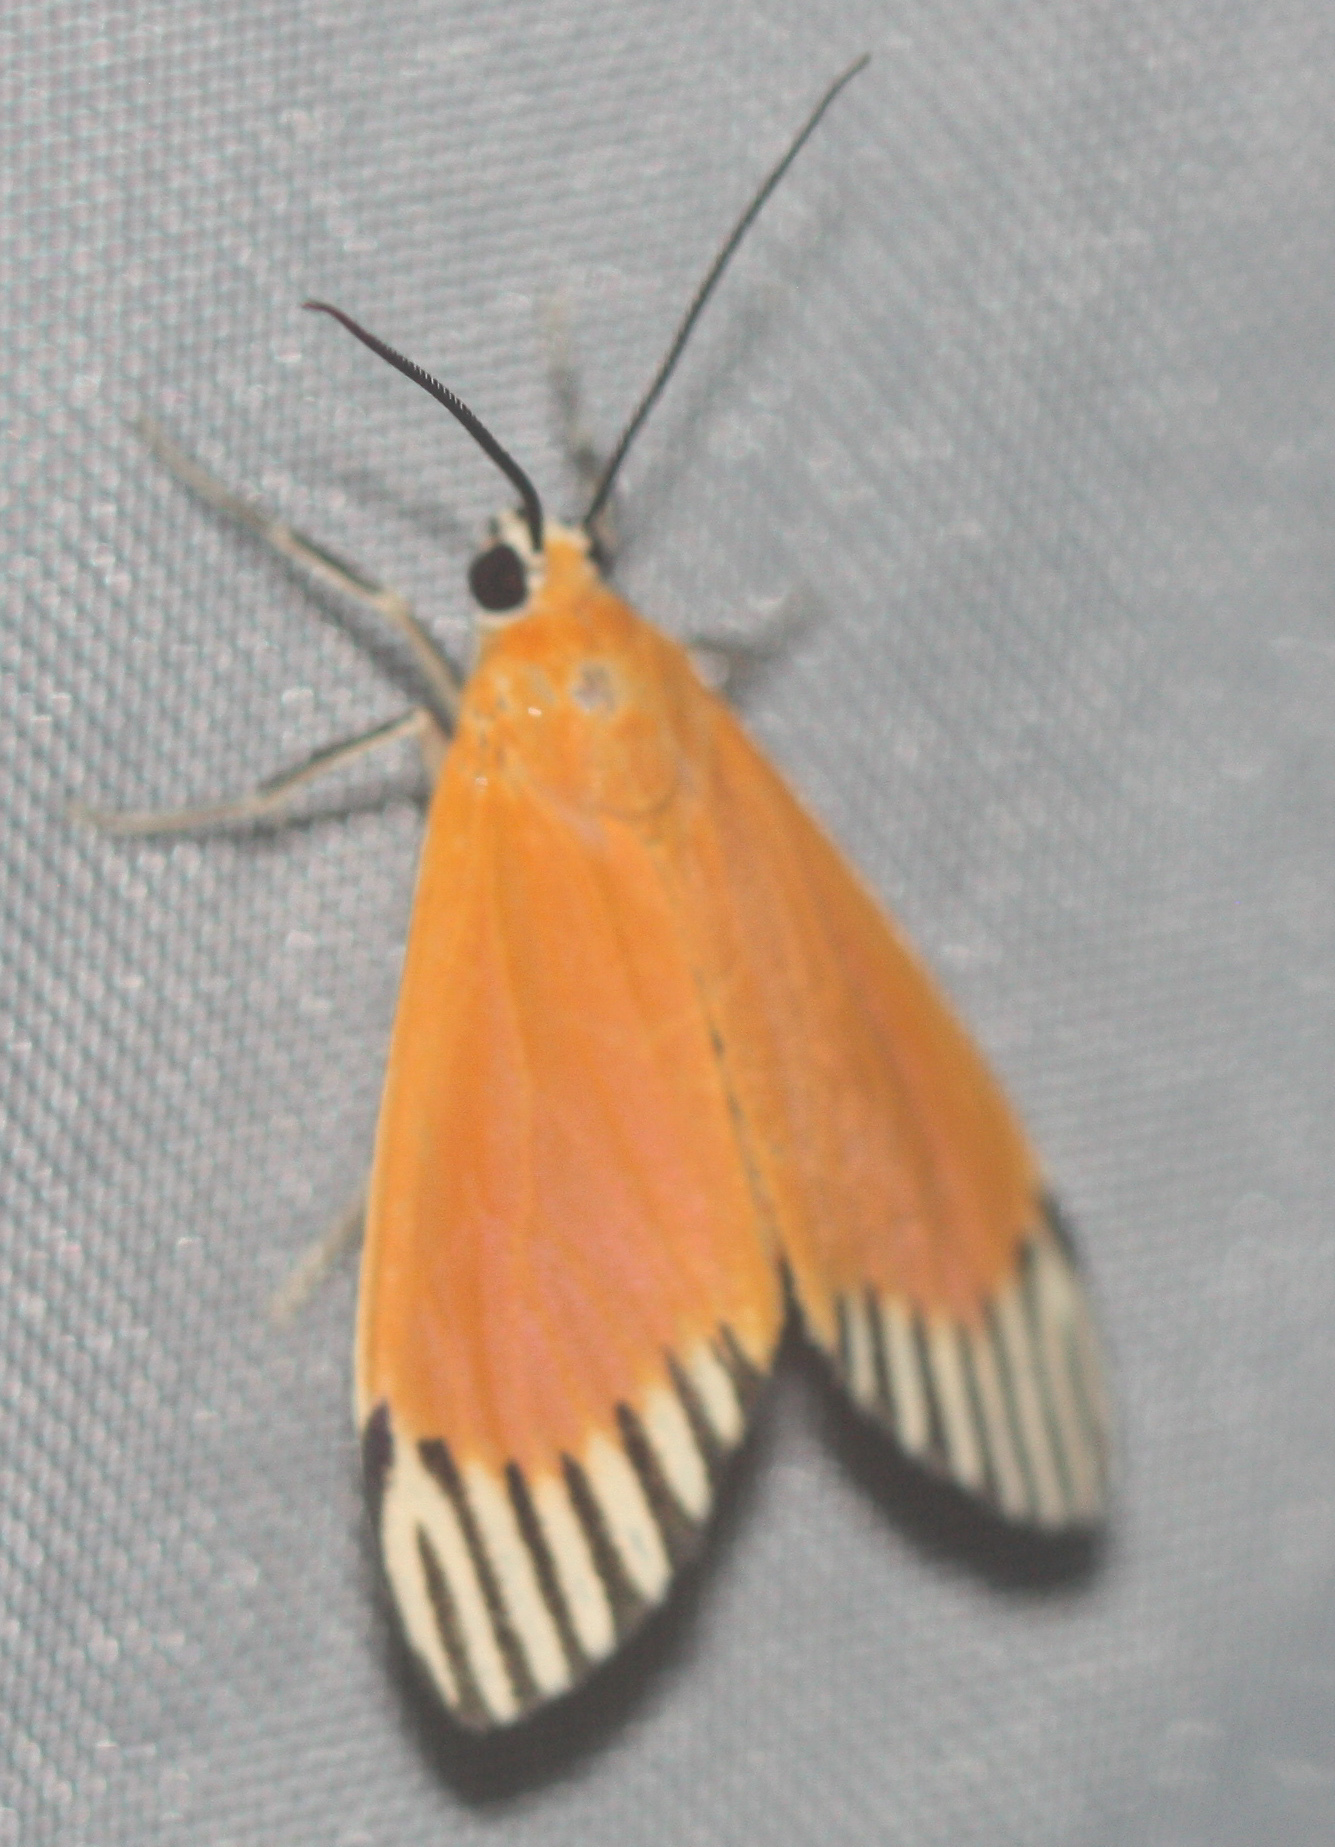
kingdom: Animalia
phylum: Arthropoda
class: Insecta
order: Lepidoptera
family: Erebidae
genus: Uranophora
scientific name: Uranophora walkeri
